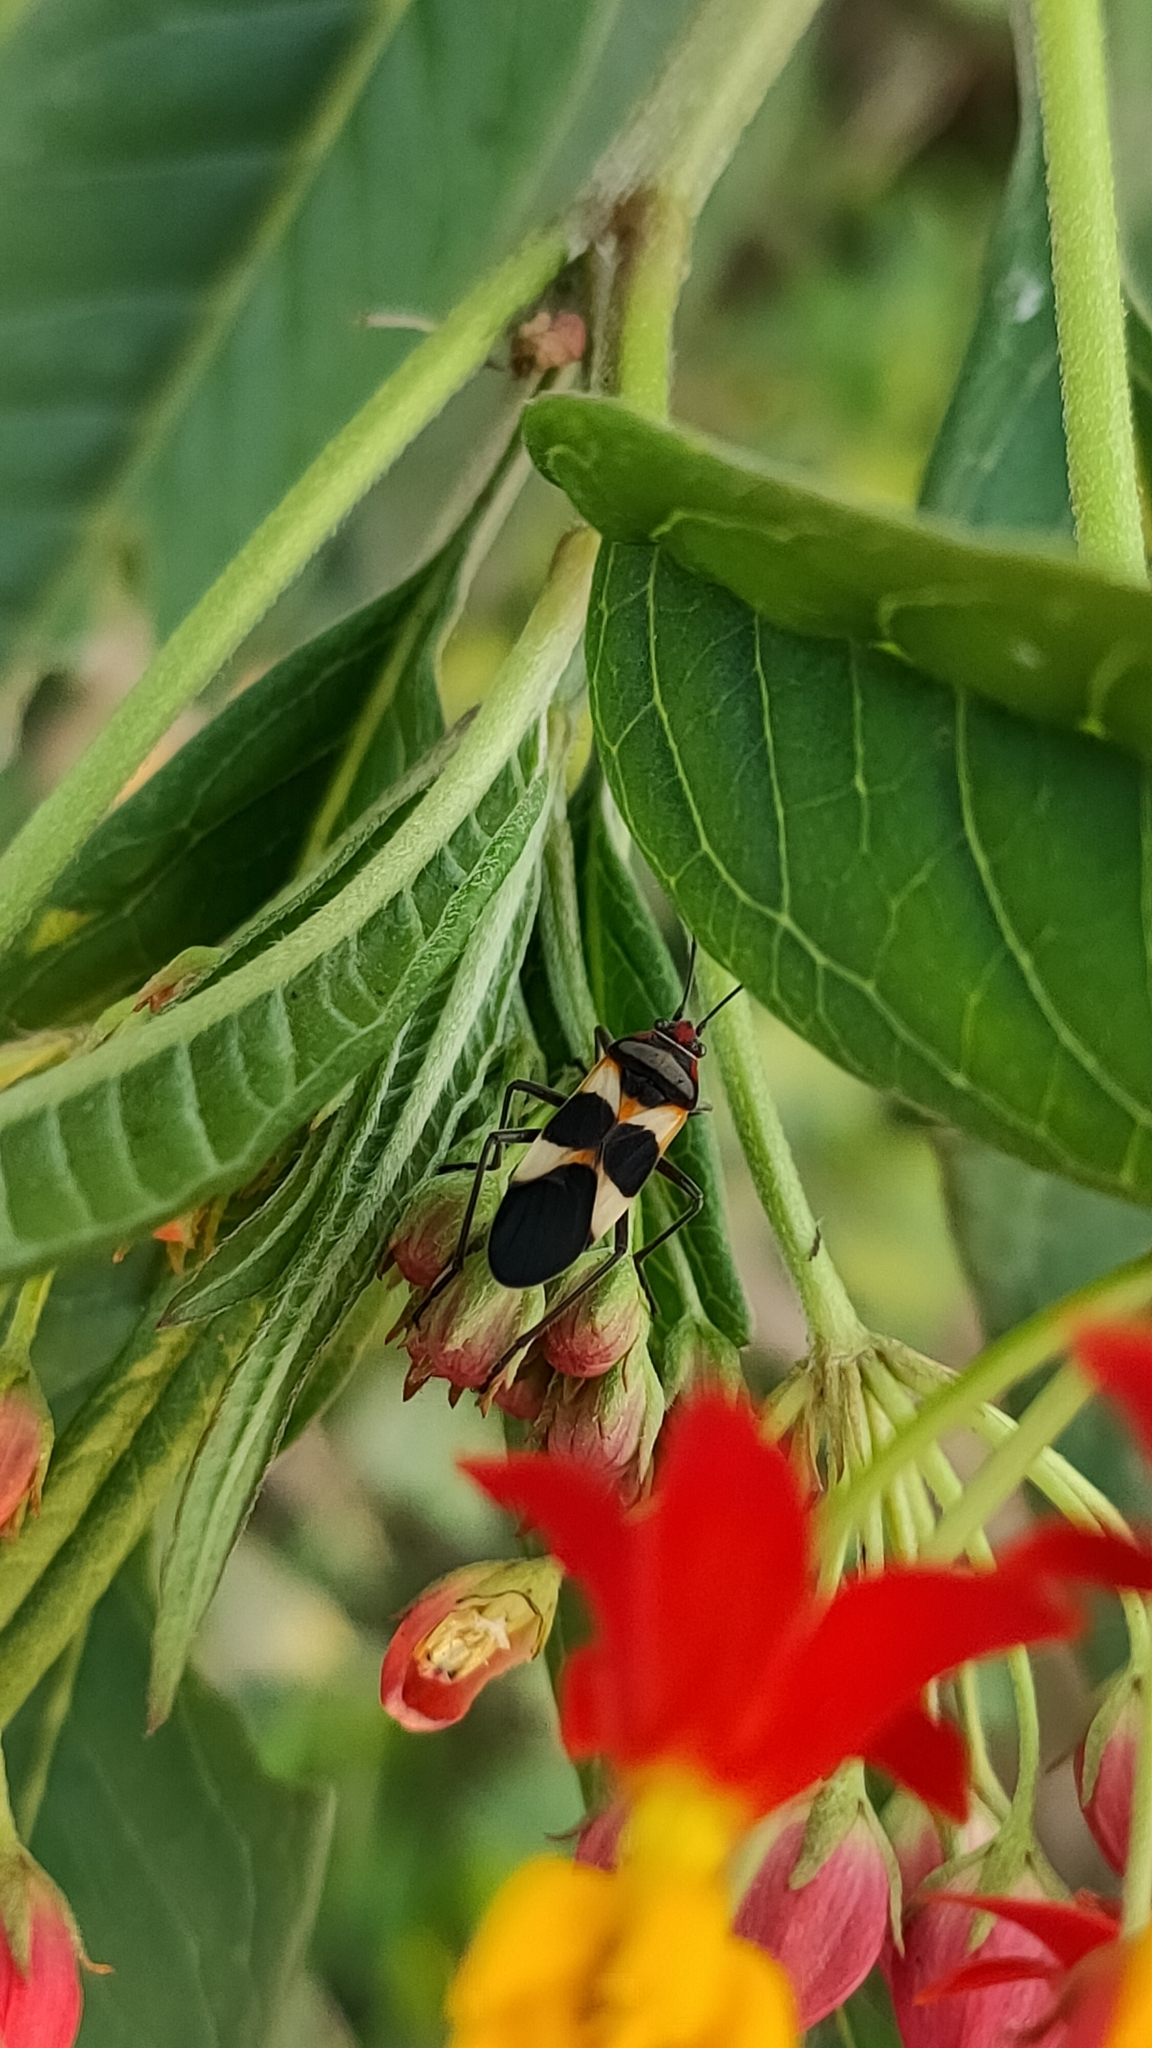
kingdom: Animalia
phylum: Arthropoda
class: Insecta
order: Hemiptera
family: Lygaeidae
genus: Oncopeltus
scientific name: Oncopeltus unifasciatellus
